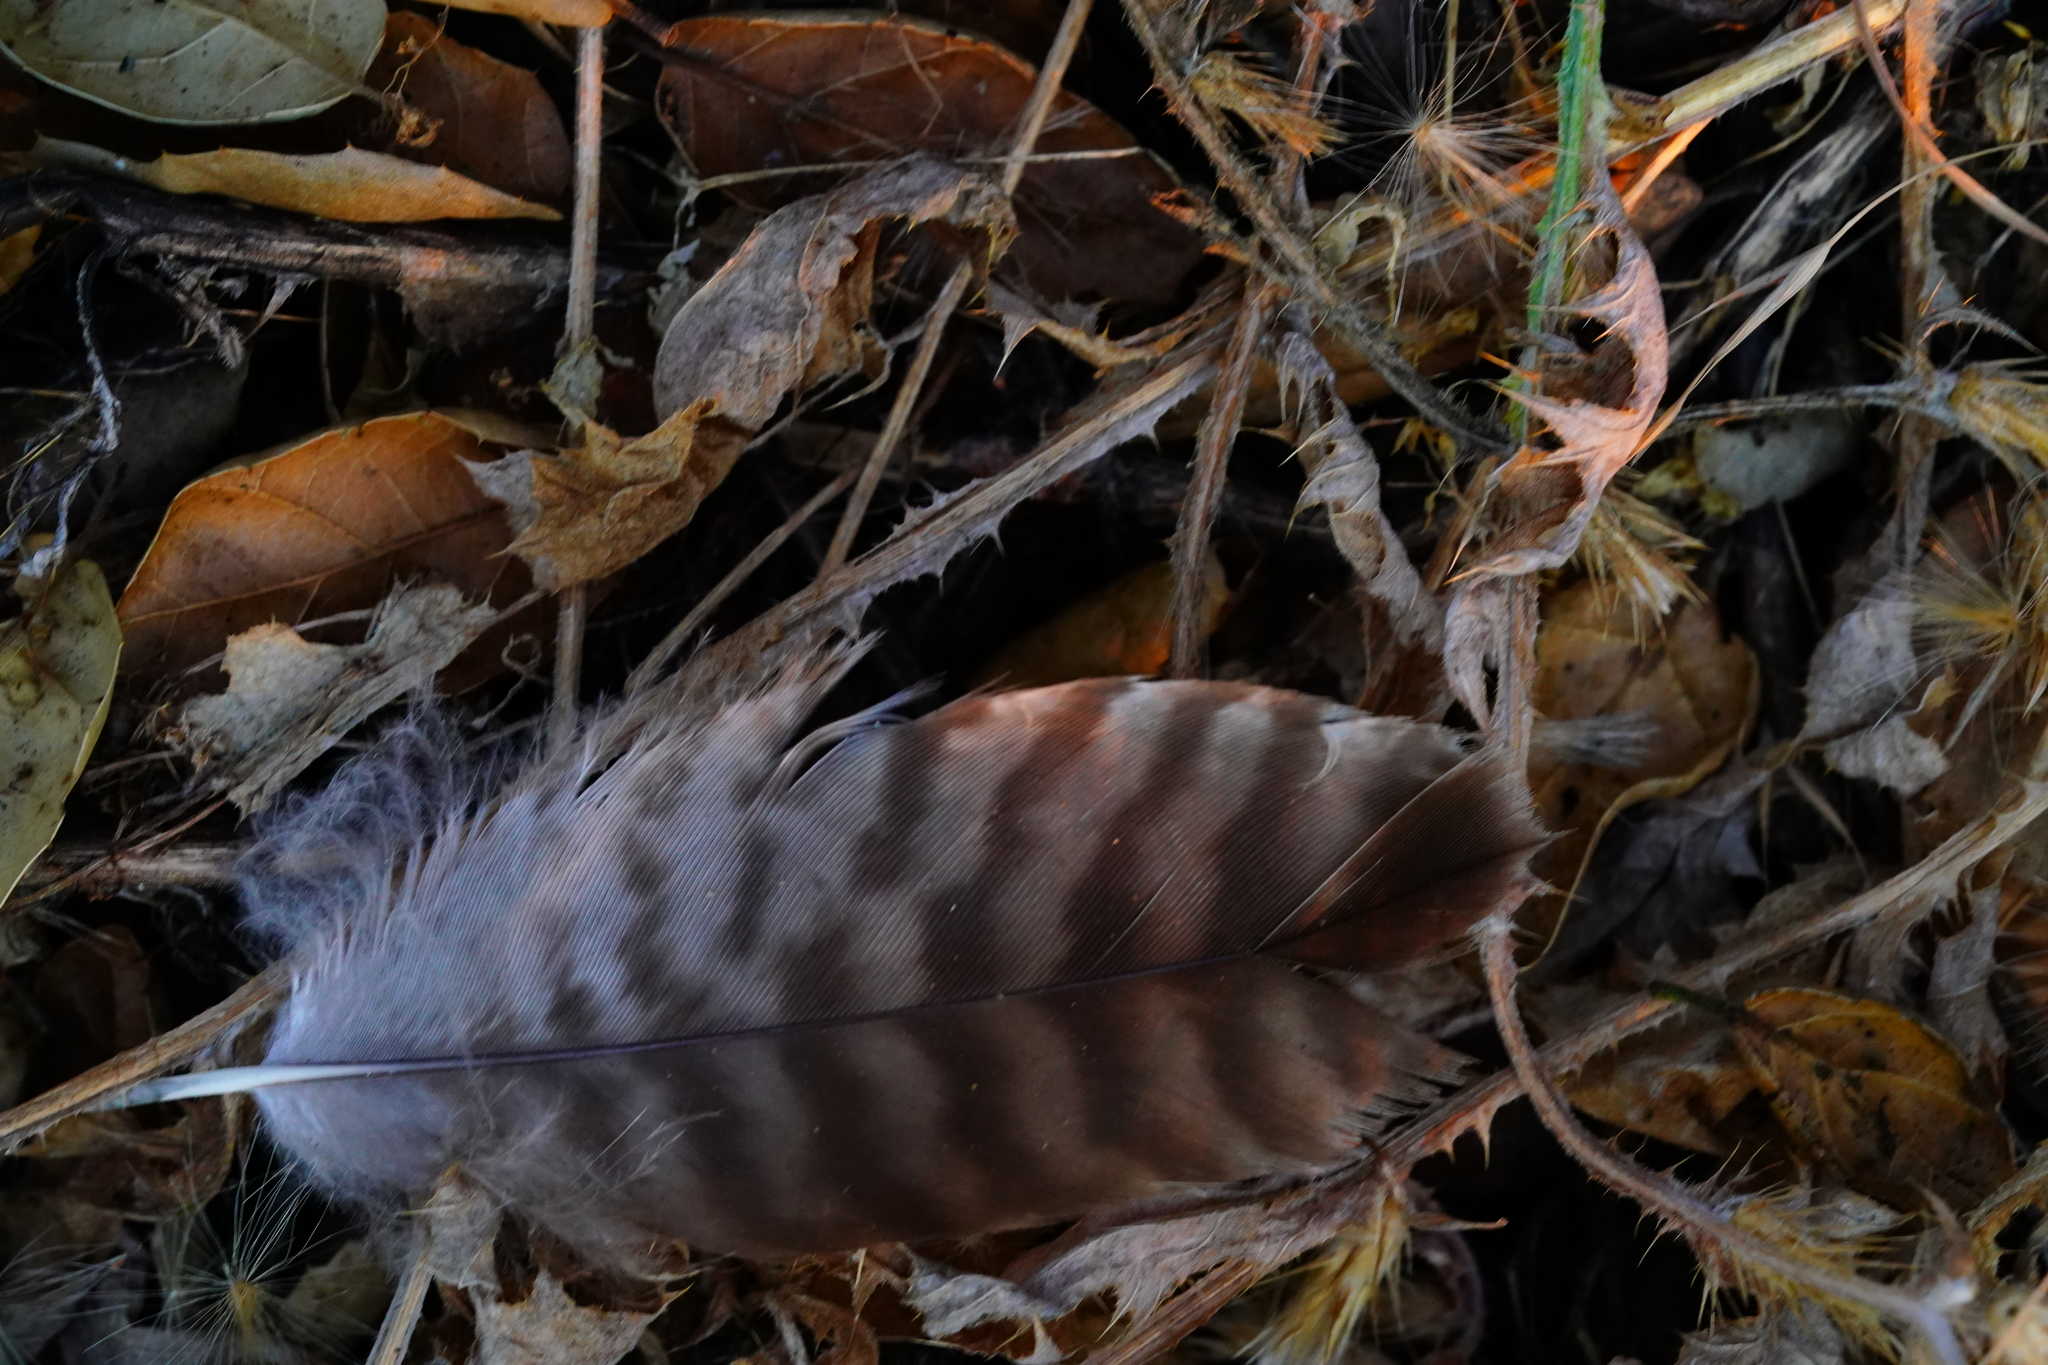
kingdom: Animalia
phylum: Chordata
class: Aves
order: Accipitriformes
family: Accipitridae
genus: Buteo
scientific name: Buteo jamaicensis
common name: Red-tailed hawk
